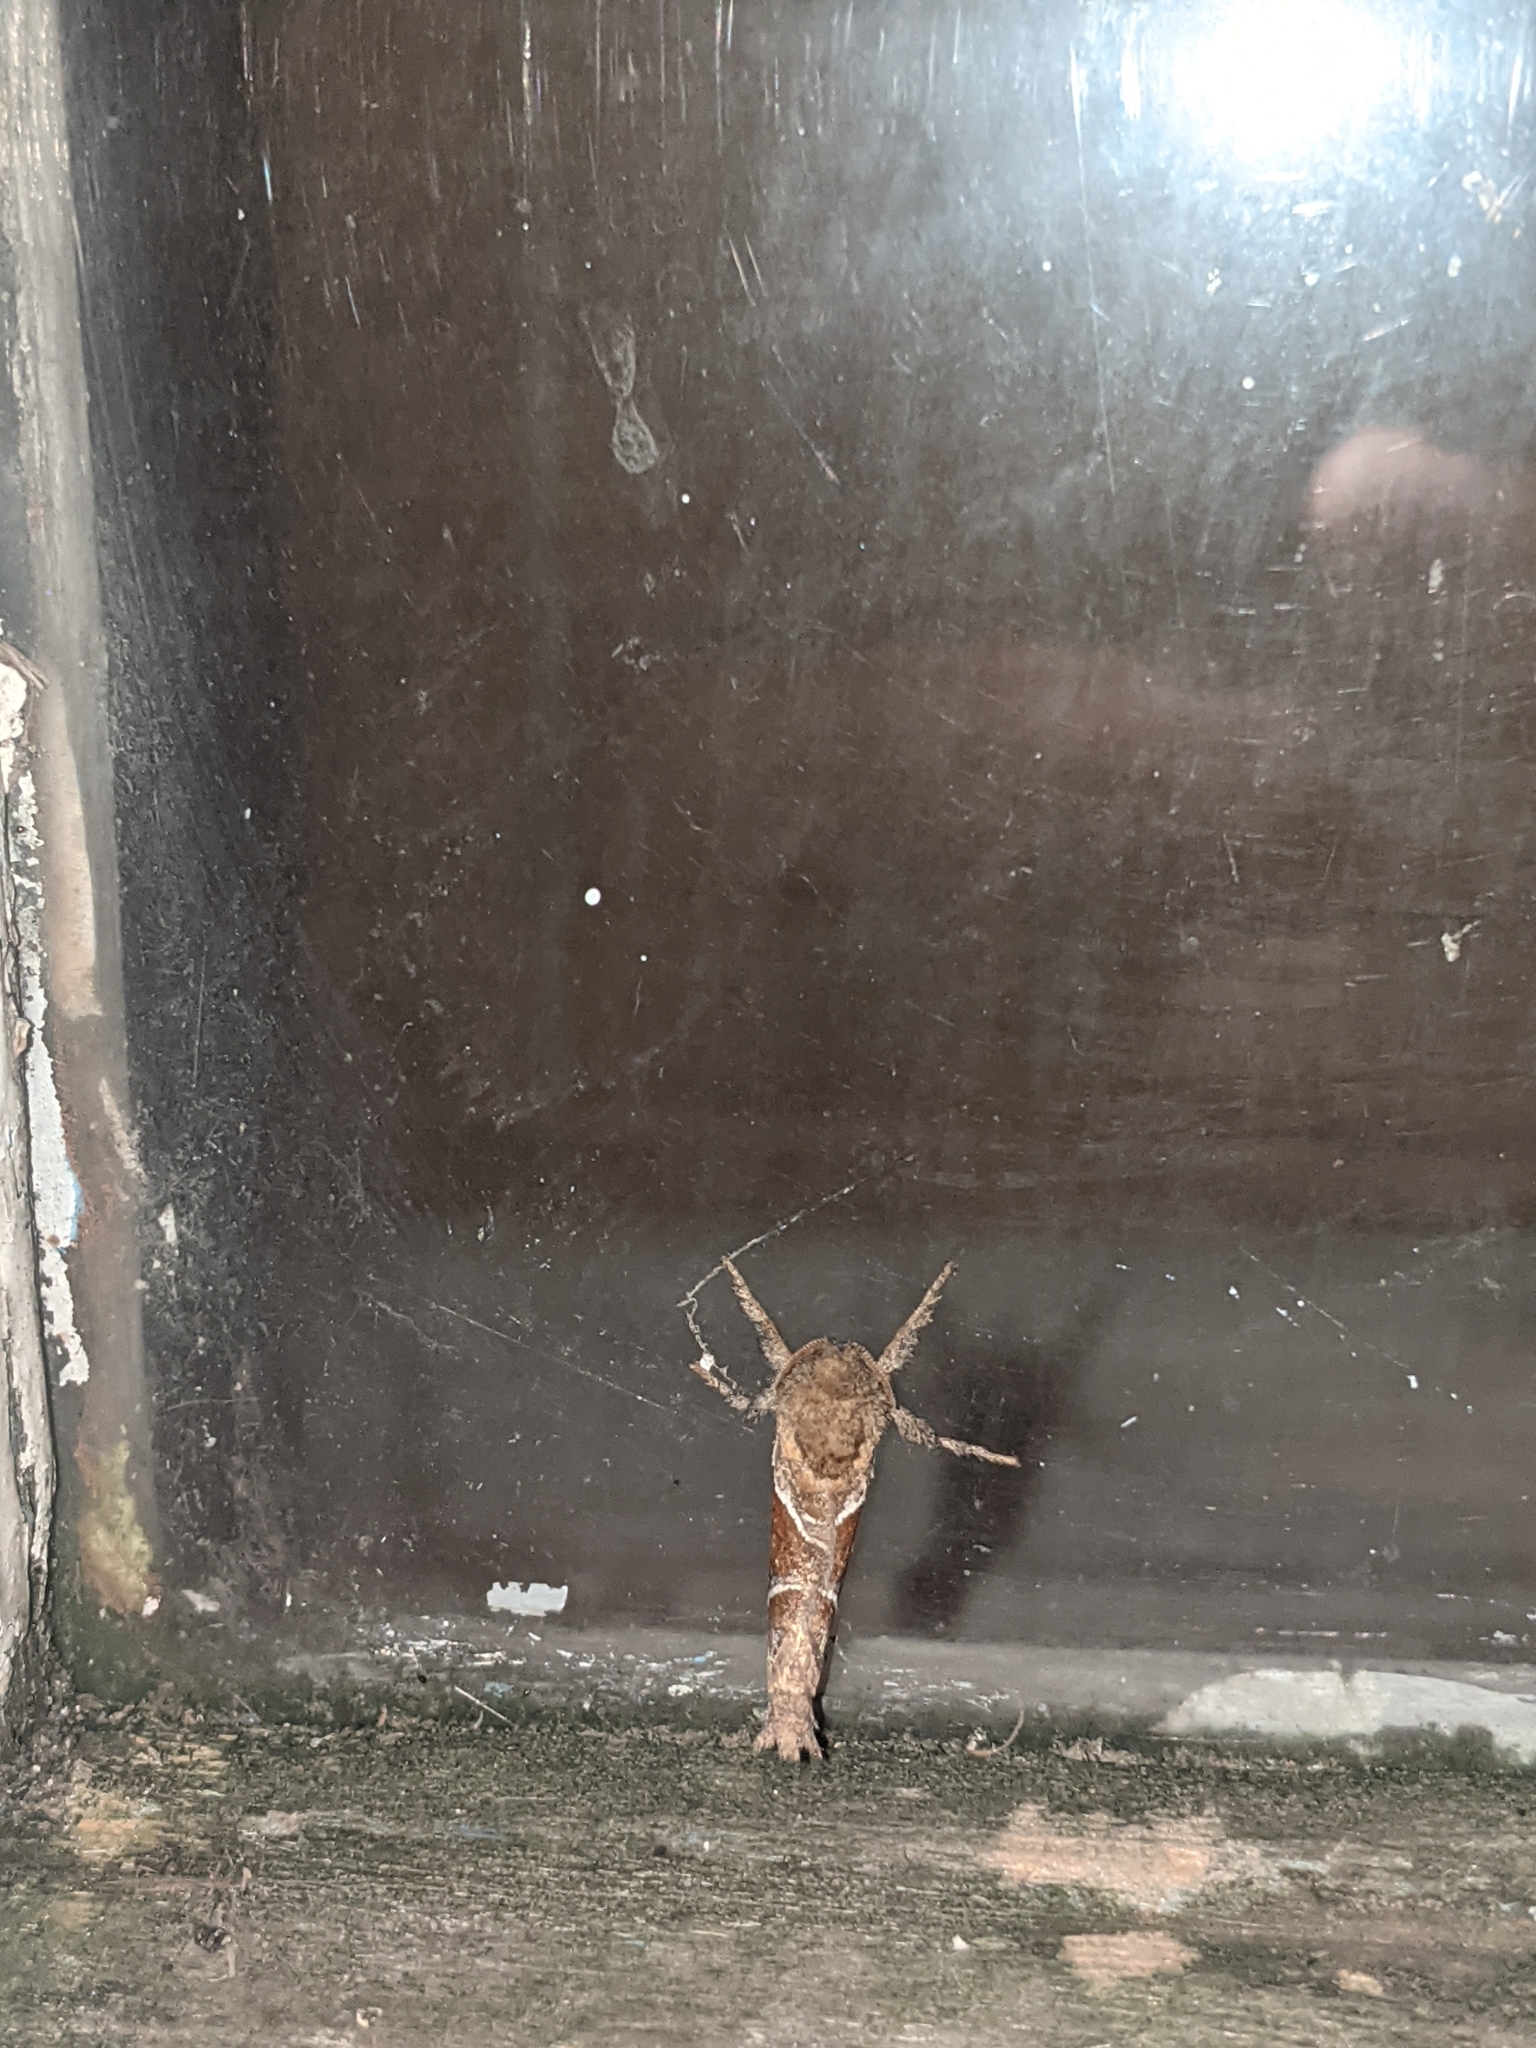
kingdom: Animalia
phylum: Arthropoda
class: Insecta
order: Lepidoptera
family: Hepialidae
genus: Triodia
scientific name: Triodia sylvina
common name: Orange swift
